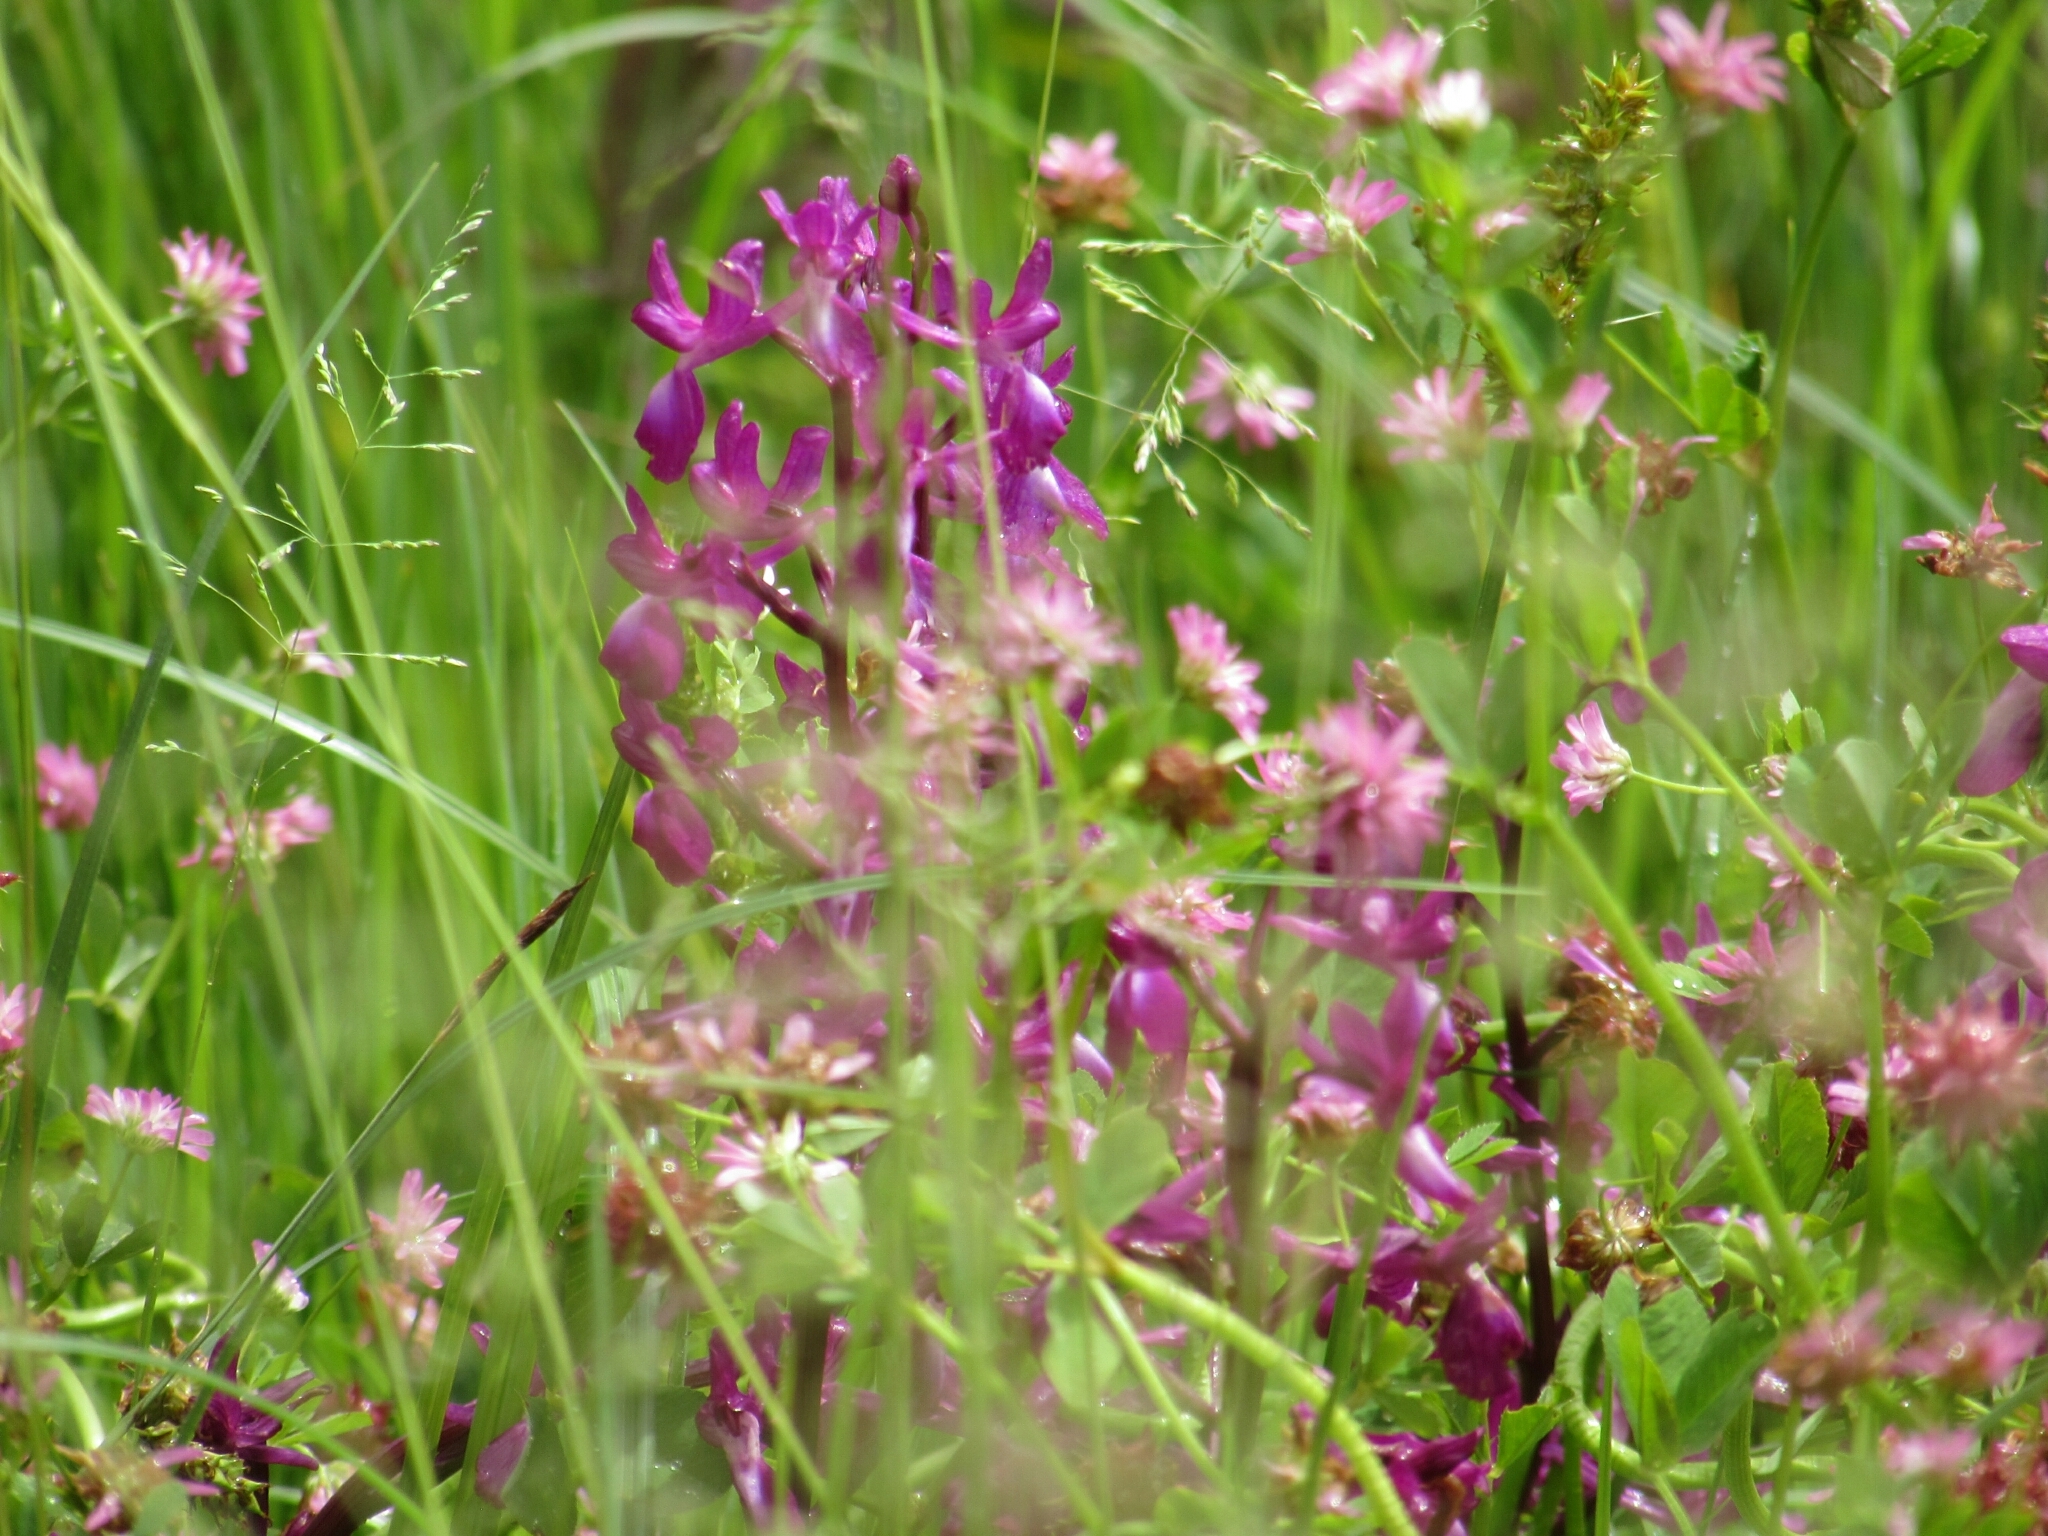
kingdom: Plantae
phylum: Tracheophyta
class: Liliopsida
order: Asparagales
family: Orchidaceae
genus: Anacamptis
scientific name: Anacamptis laxiflora
